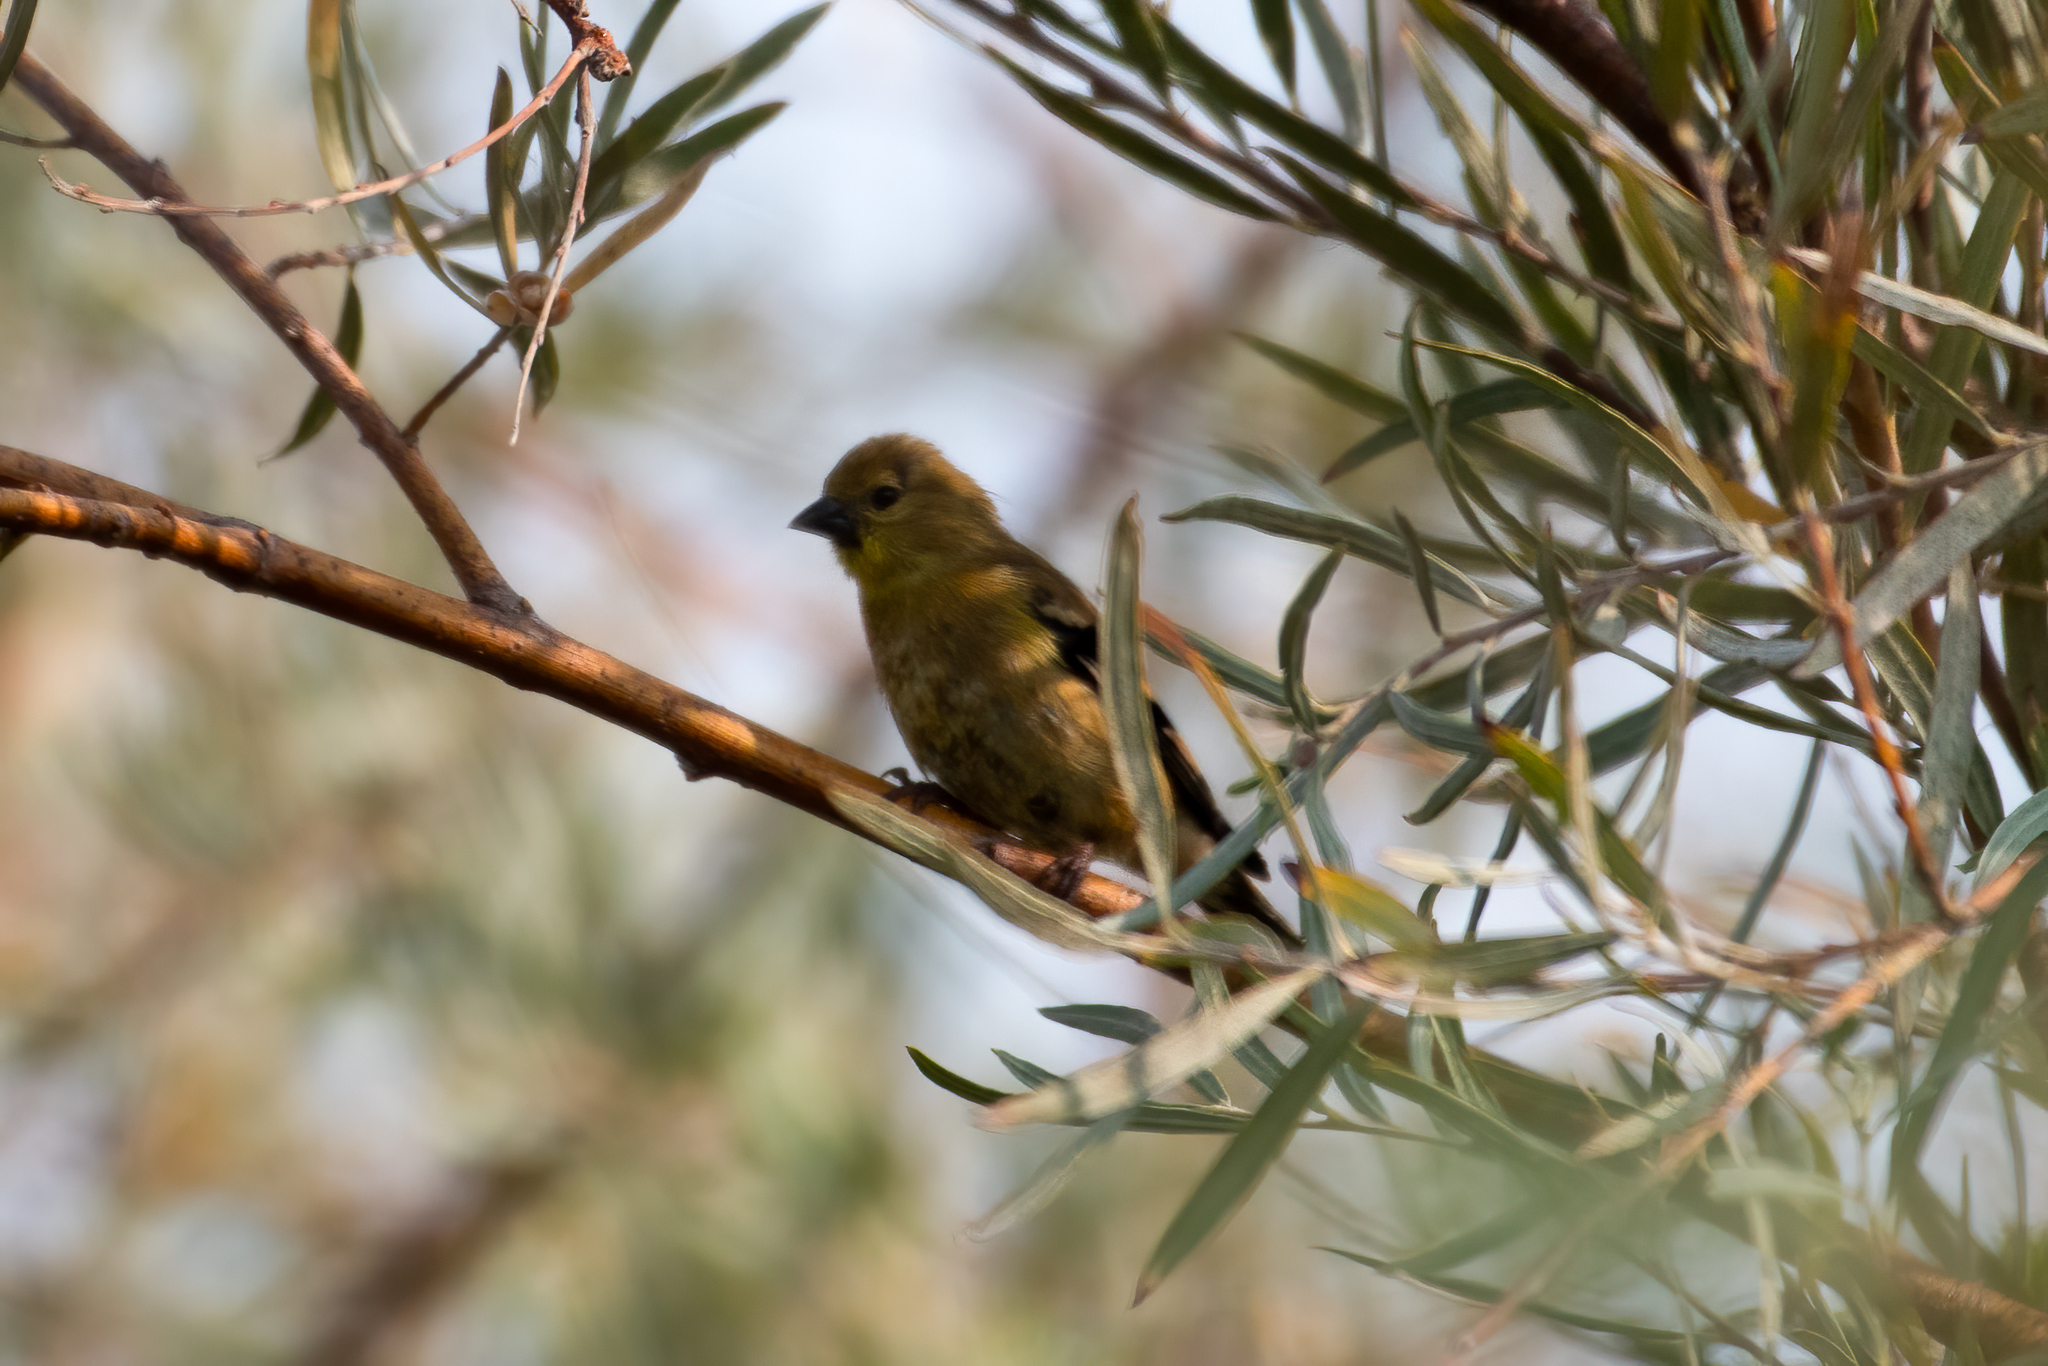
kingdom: Animalia
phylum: Chordata
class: Aves
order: Passeriformes
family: Fringillidae
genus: Spinus
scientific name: Spinus tristis
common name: American goldfinch
